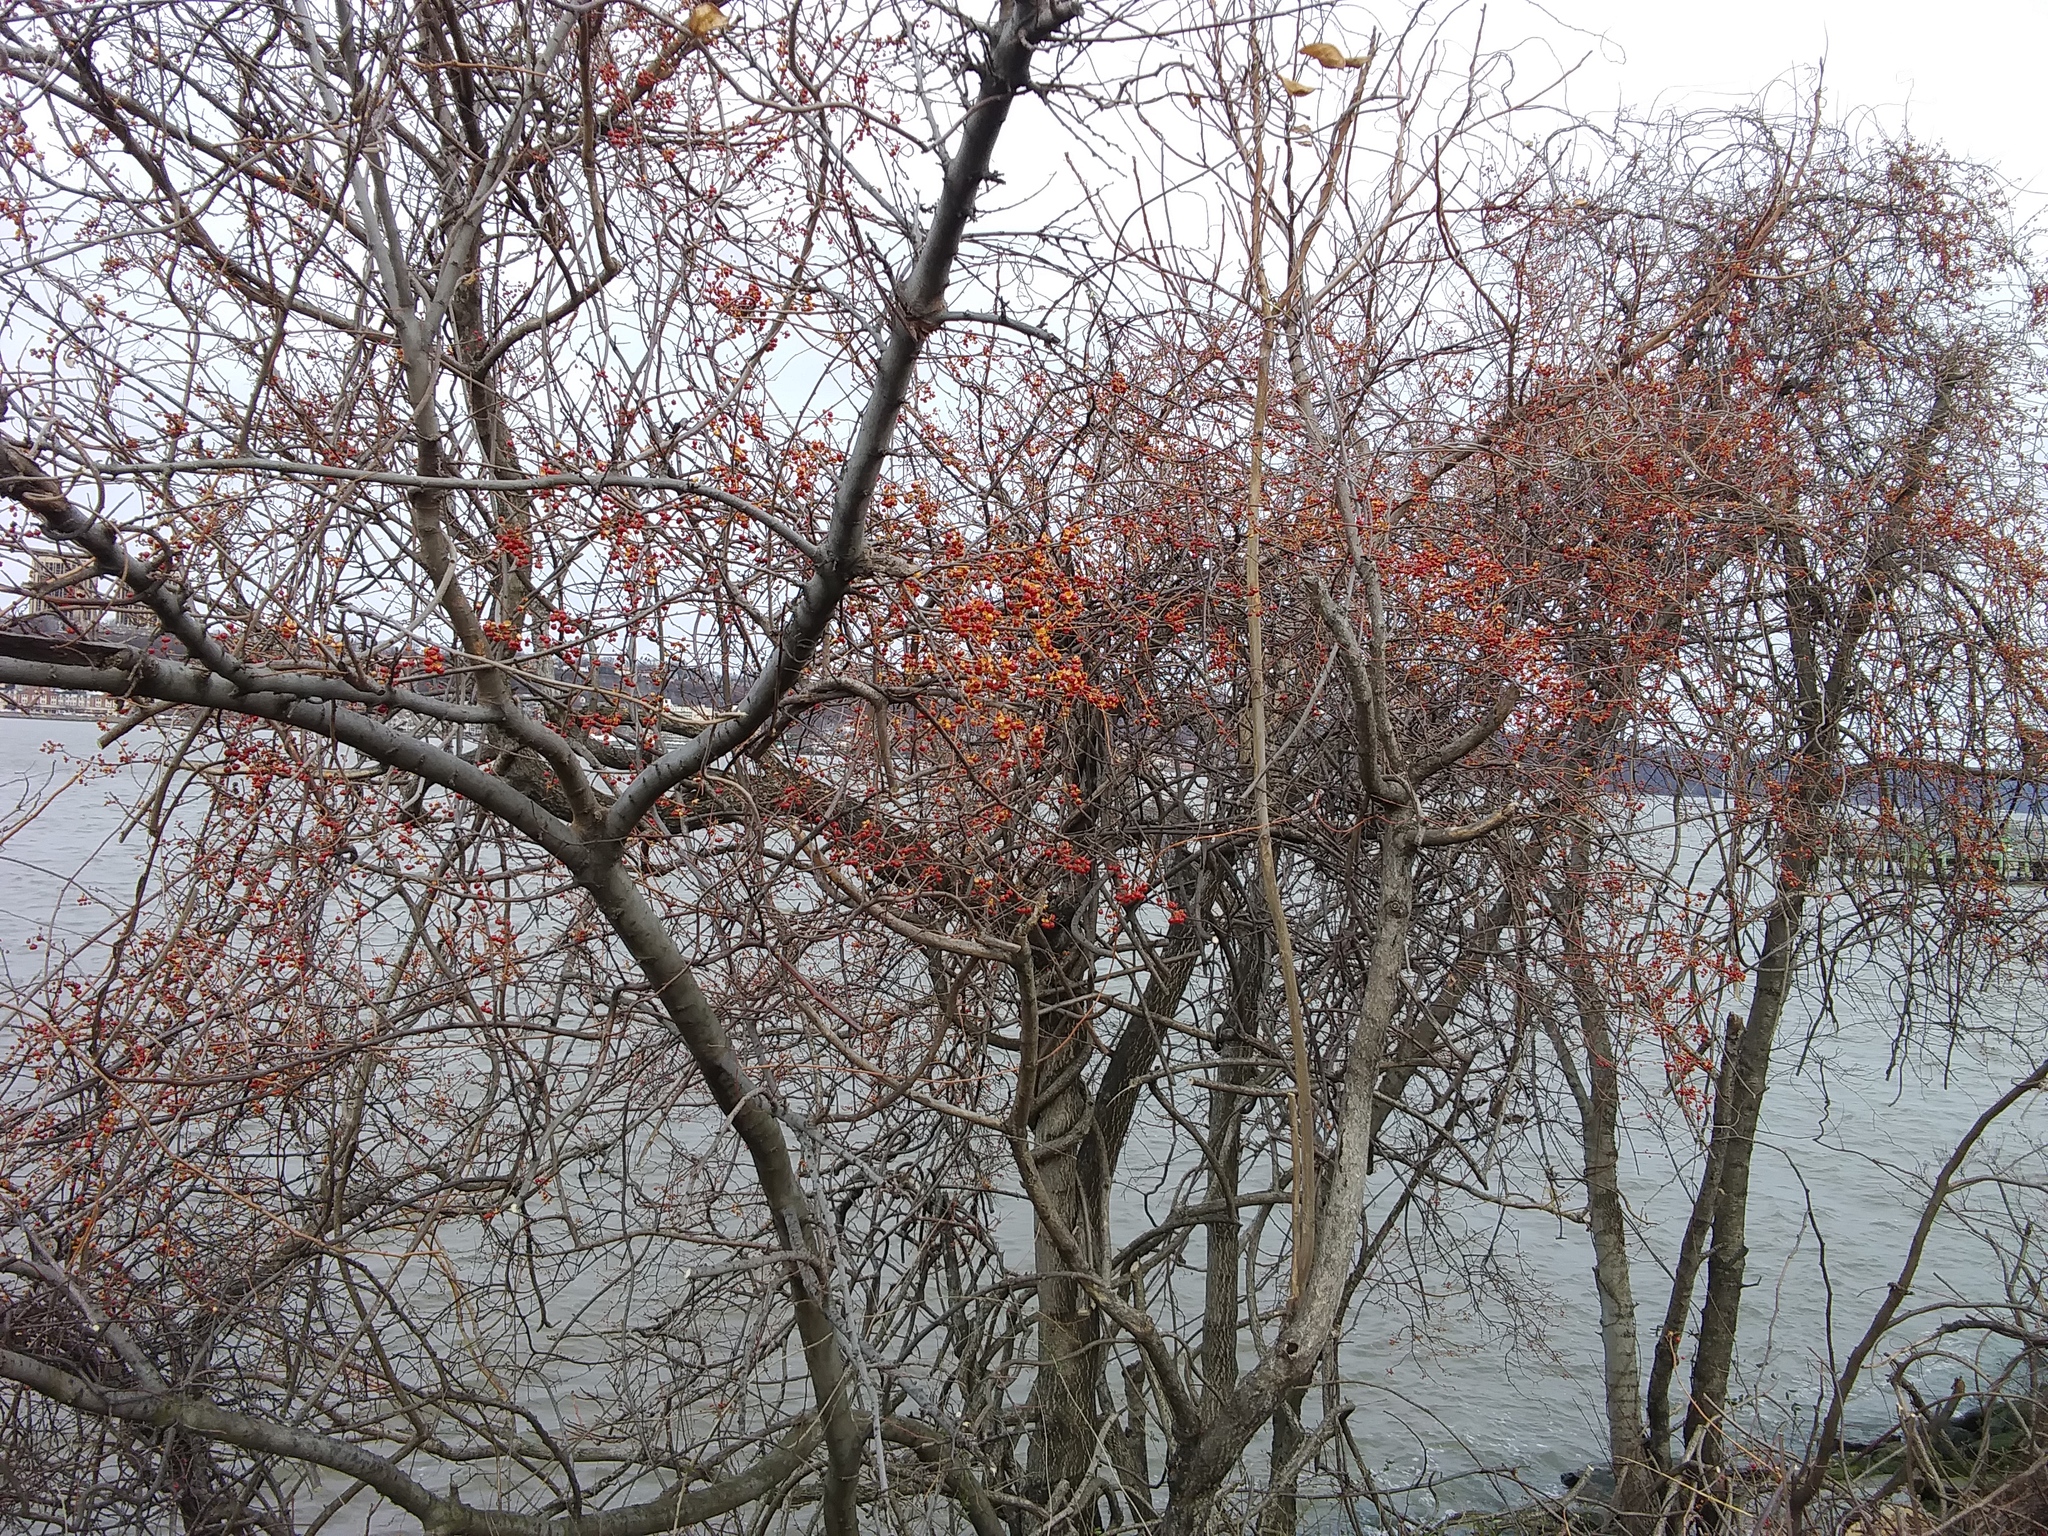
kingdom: Plantae
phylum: Tracheophyta
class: Magnoliopsida
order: Celastrales
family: Celastraceae
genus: Celastrus
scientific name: Celastrus orbiculatus
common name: Oriental bittersweet
